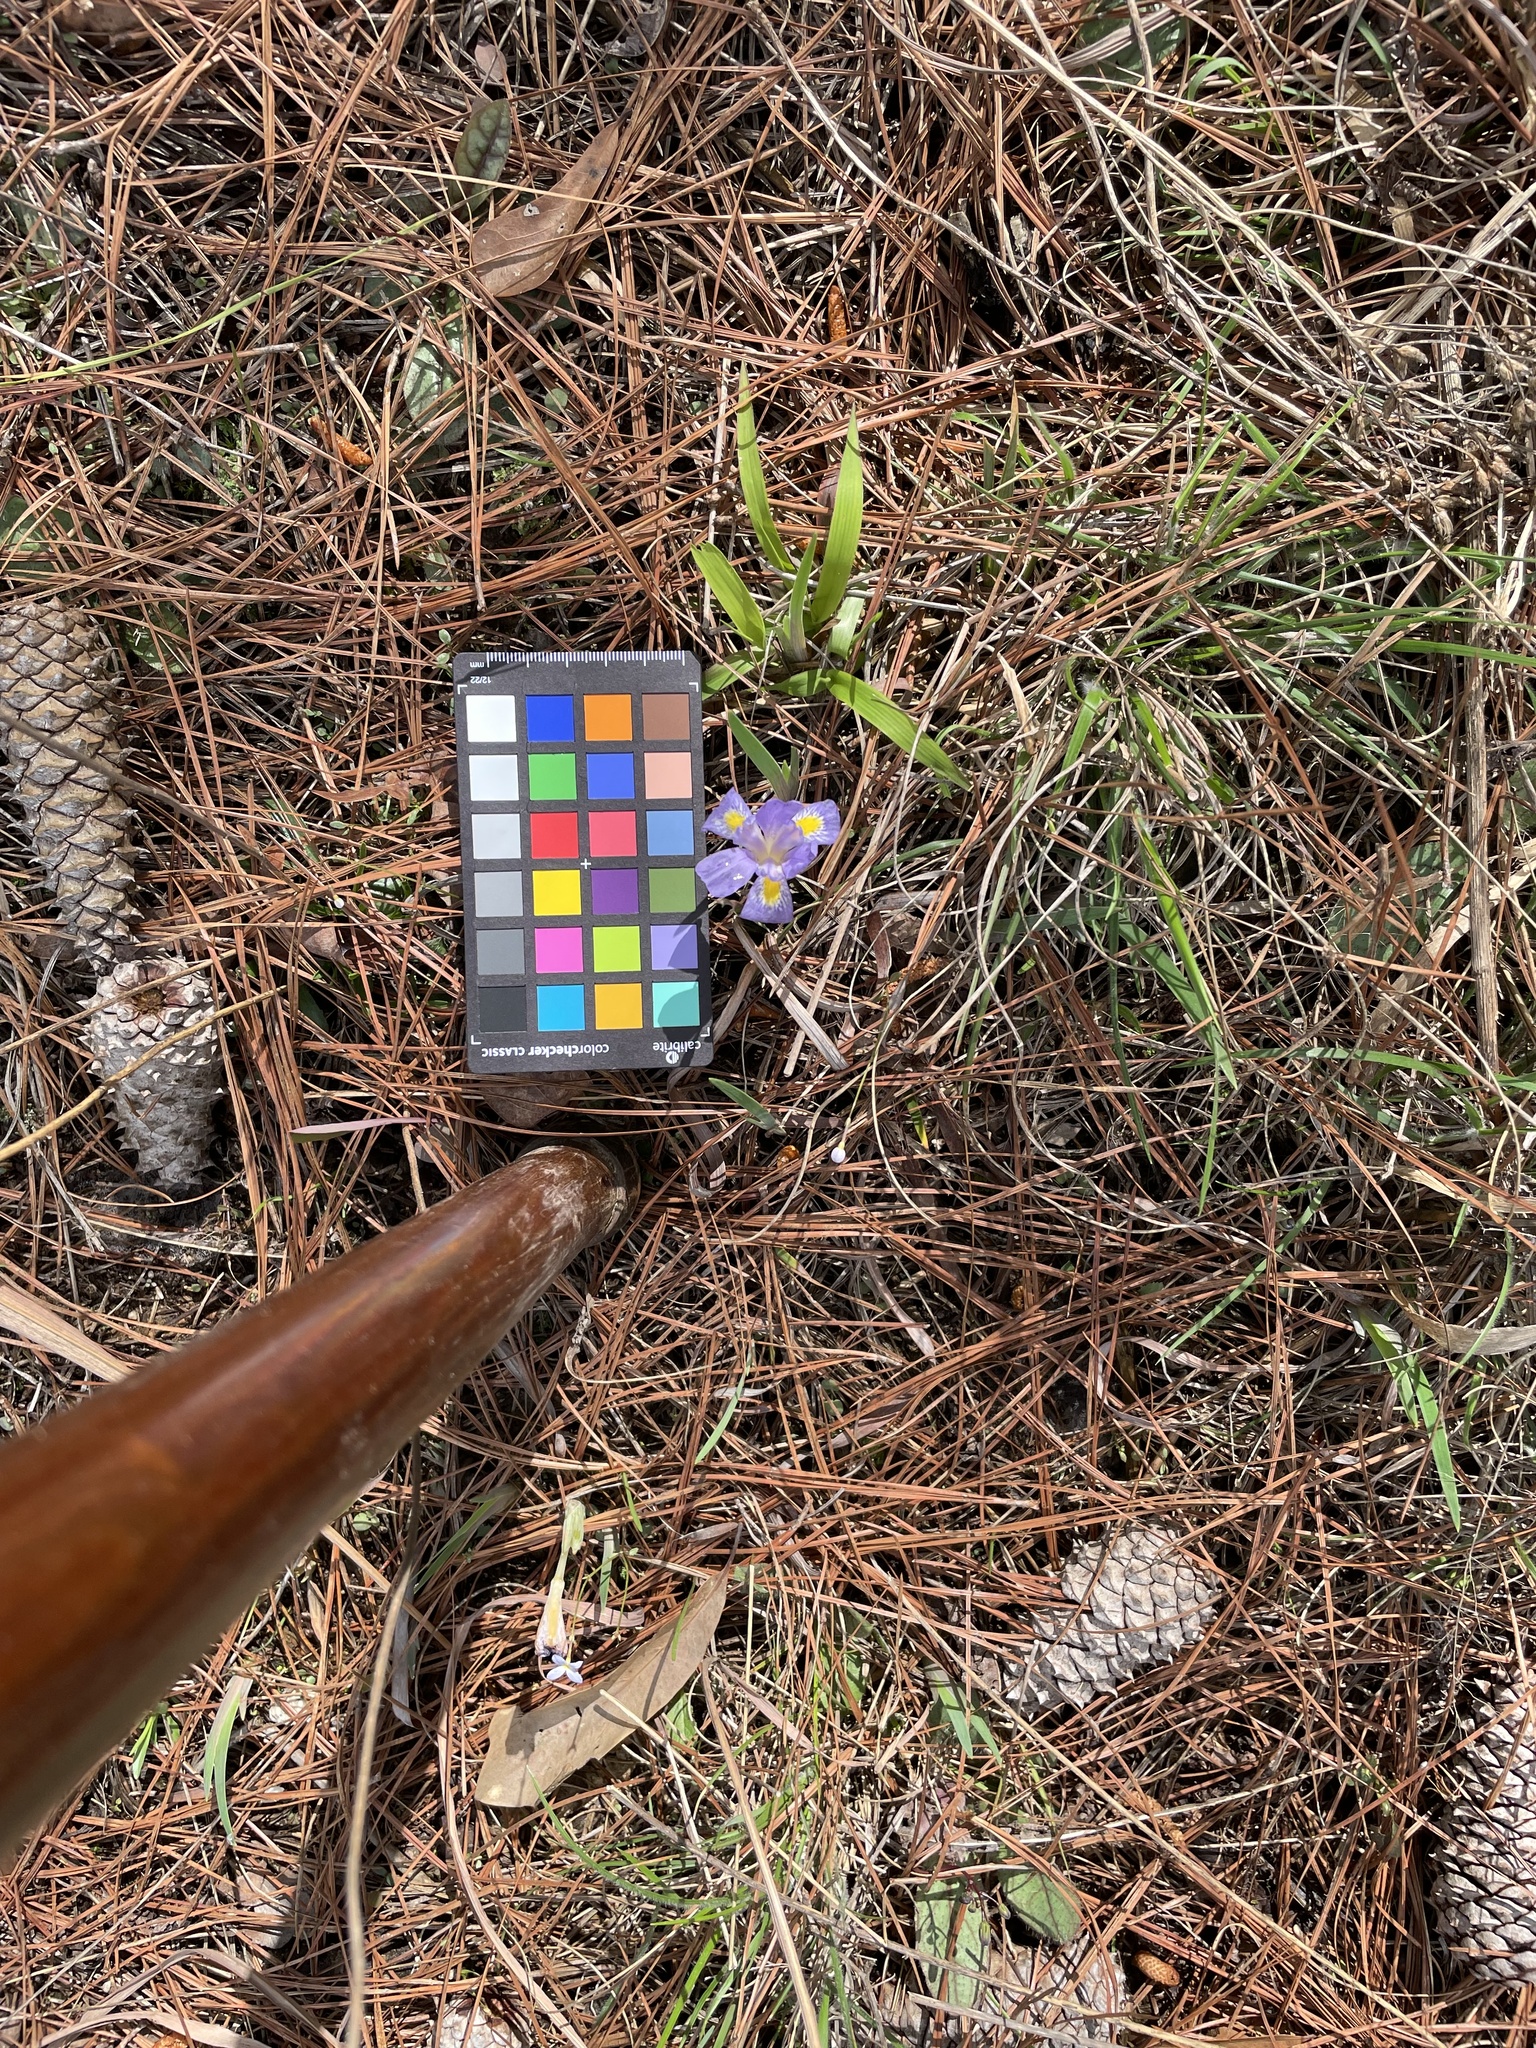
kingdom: Plantae
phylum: Tracheophyta
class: Liliopsida
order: Asparagales
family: Iridaceae
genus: Iris
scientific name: Iris verna
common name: Dwarf iris
